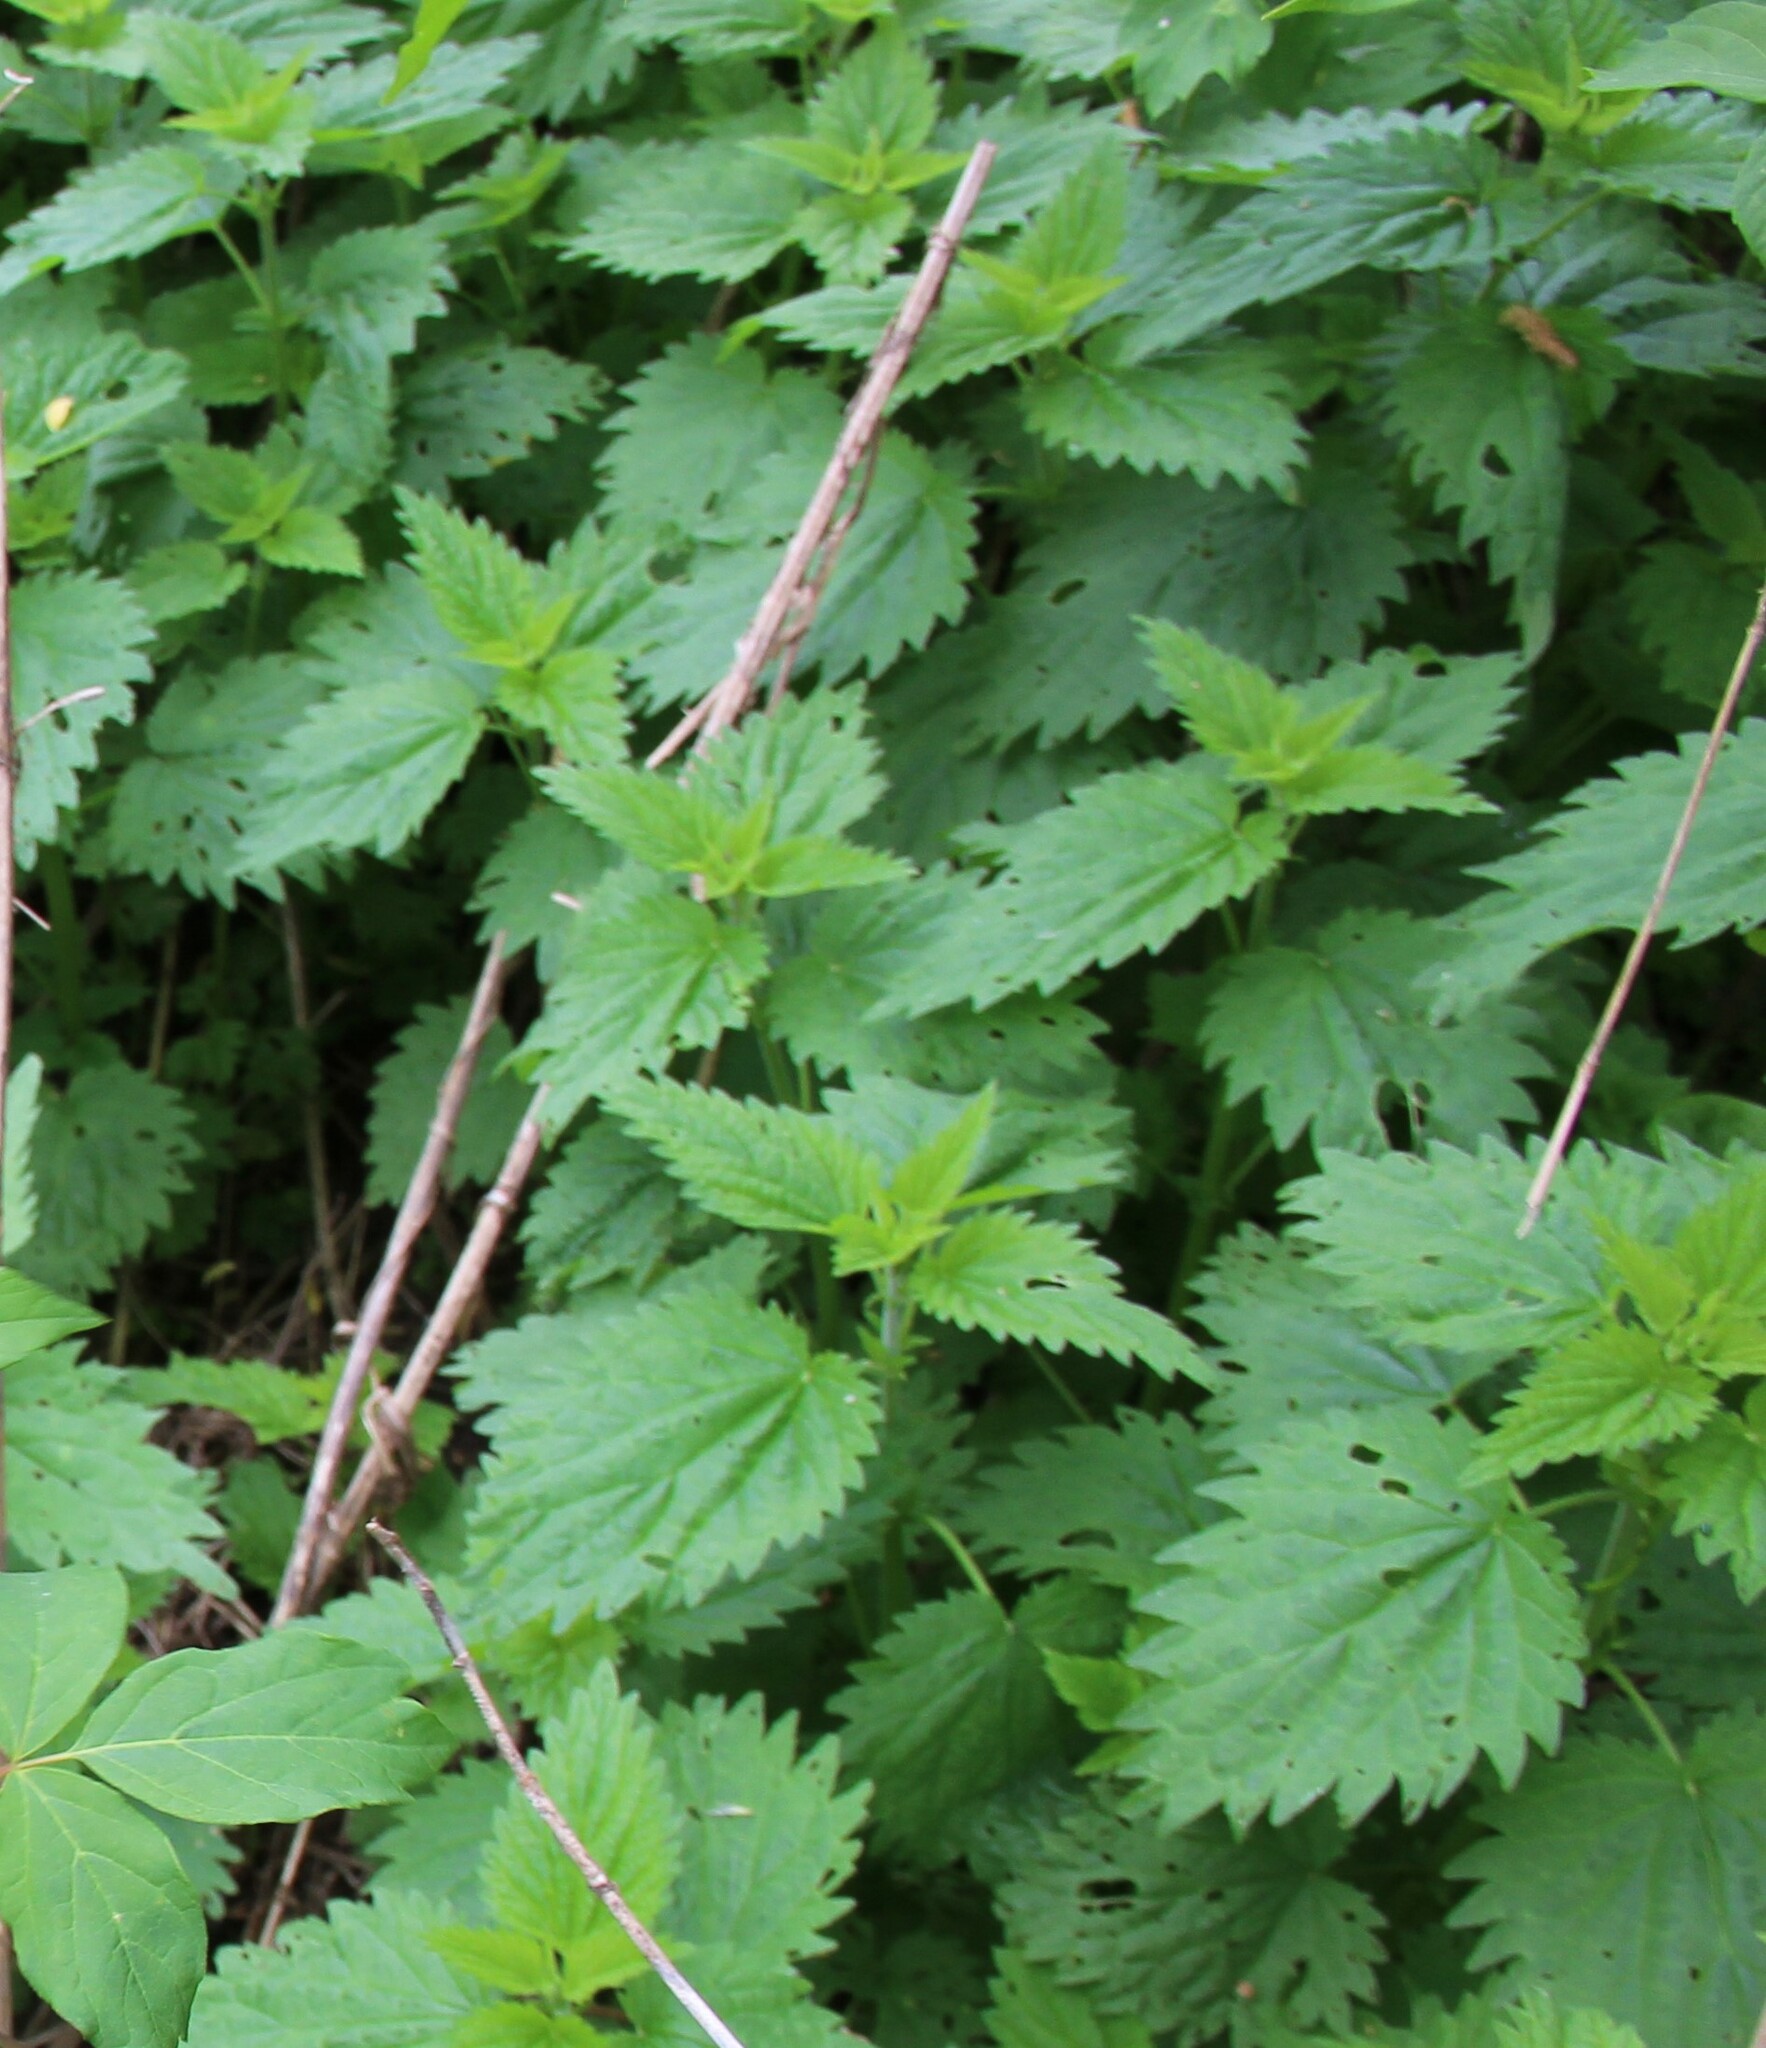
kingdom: Plantae
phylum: Tracheophyta
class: Magnoliopsida
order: Rosales
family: Urticaceae
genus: Urtica
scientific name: Urtica dioica
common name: Common nettle
